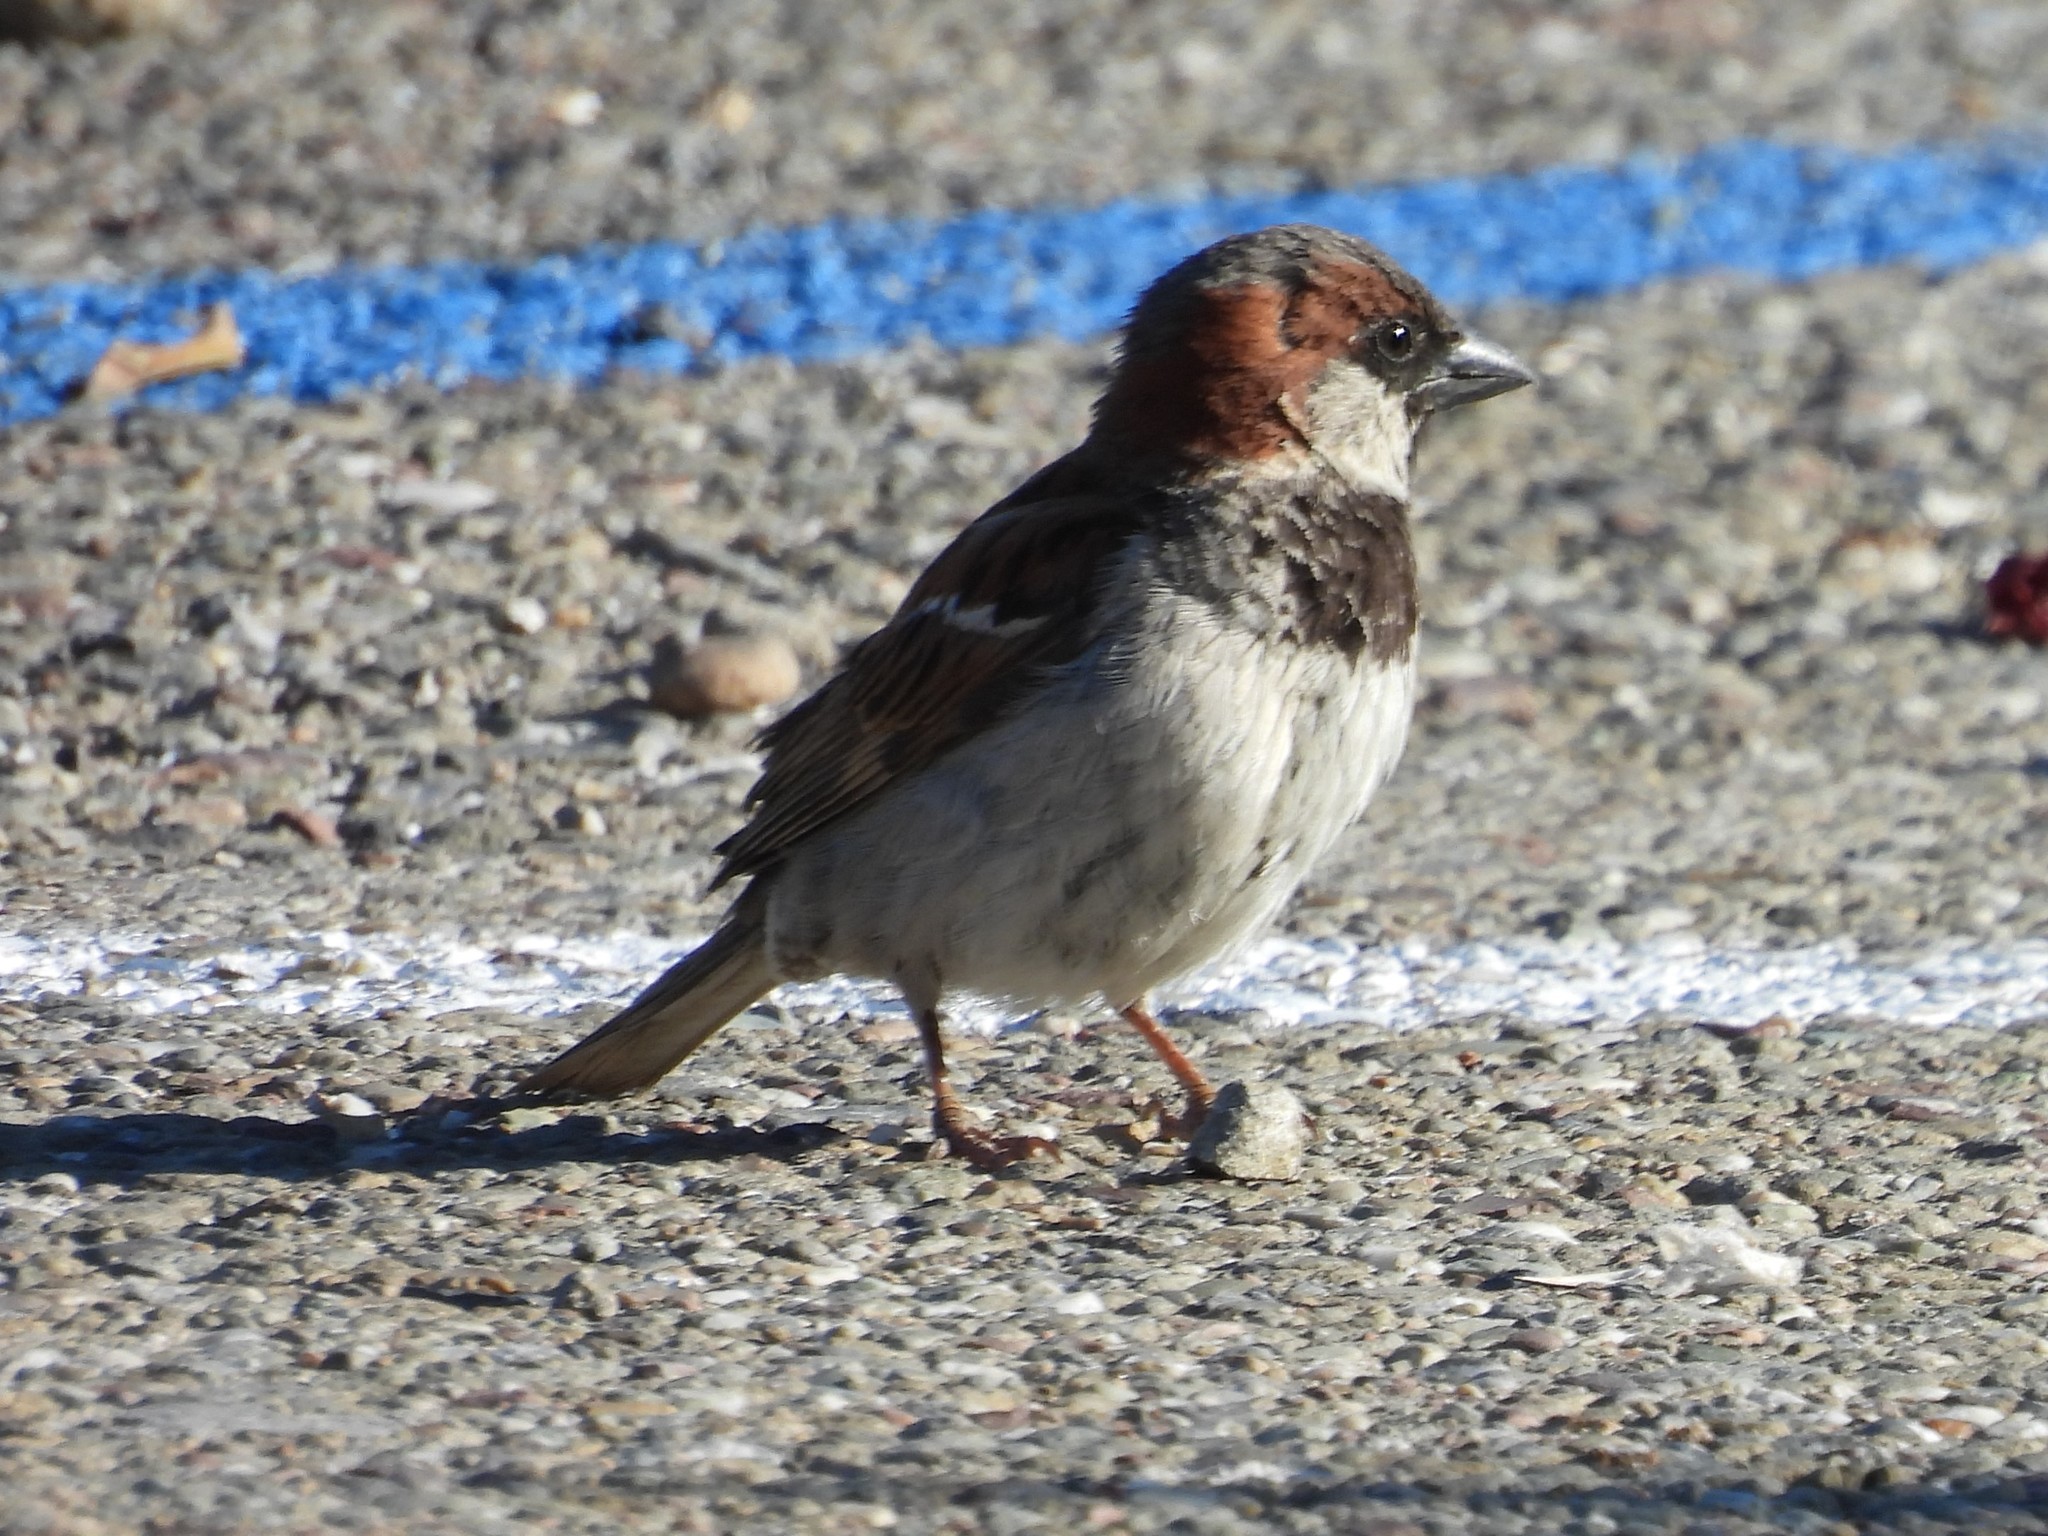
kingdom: Animalia
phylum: Chordata
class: Aves
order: Passeriformes
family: Passeridae
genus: Passer
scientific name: Passer domesticus
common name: House sparrow
